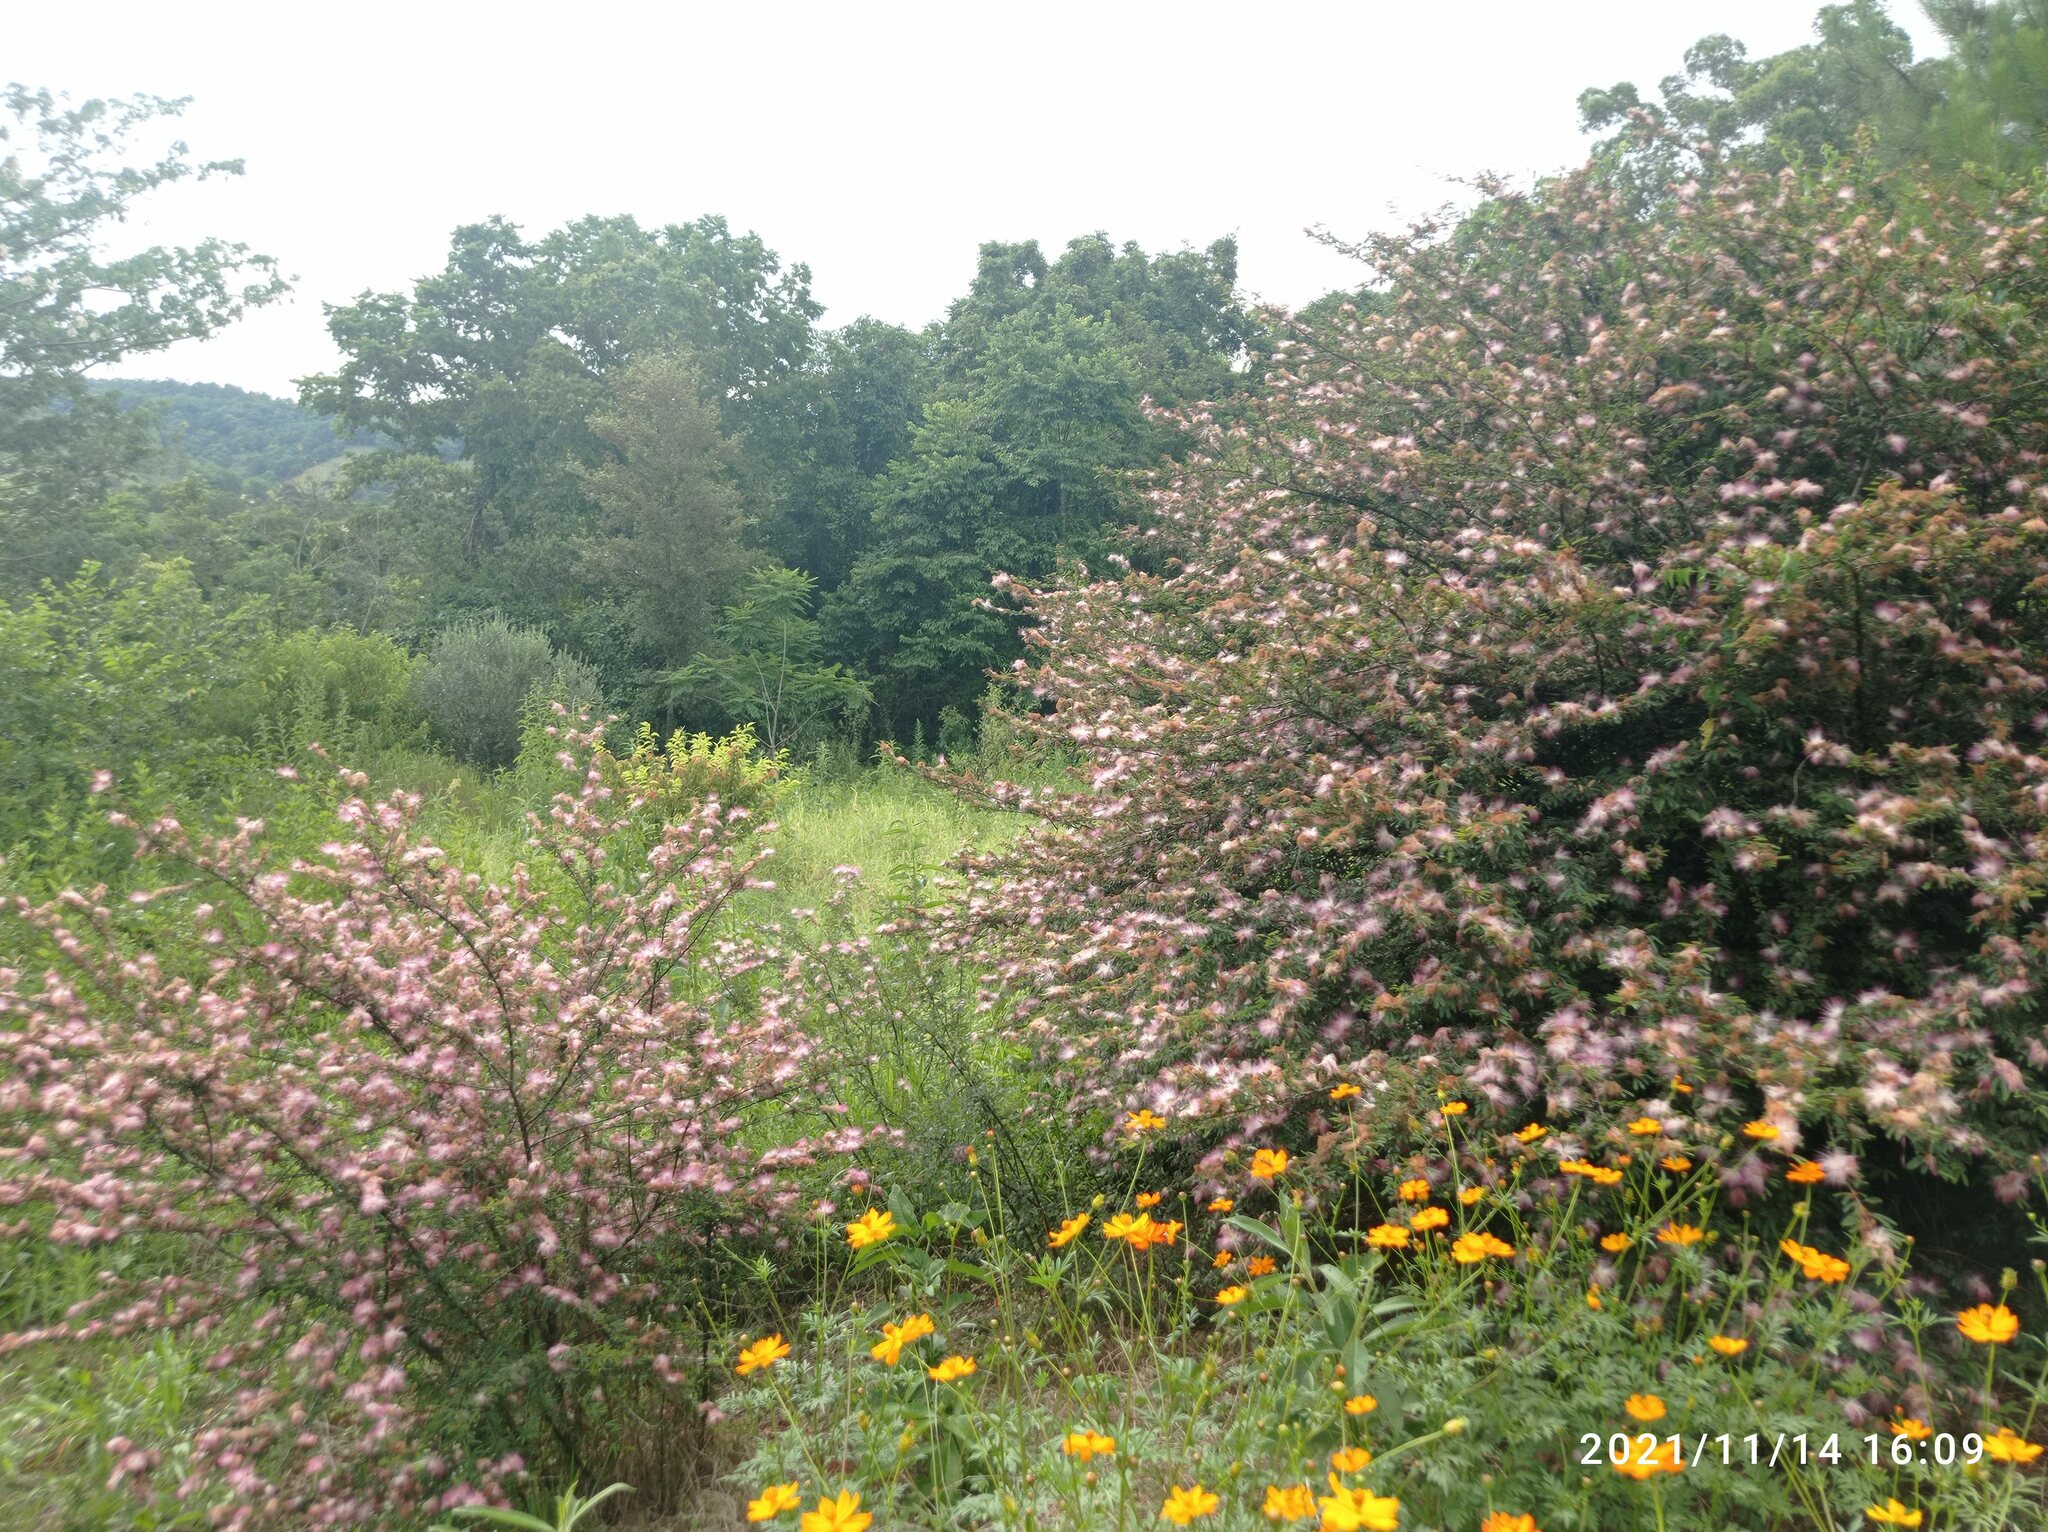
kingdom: Plantae
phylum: Tracheophyta
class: Magnoliopsida
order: Fabales
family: Fabaceae
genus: Calliandra
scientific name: Calliandra selloi
